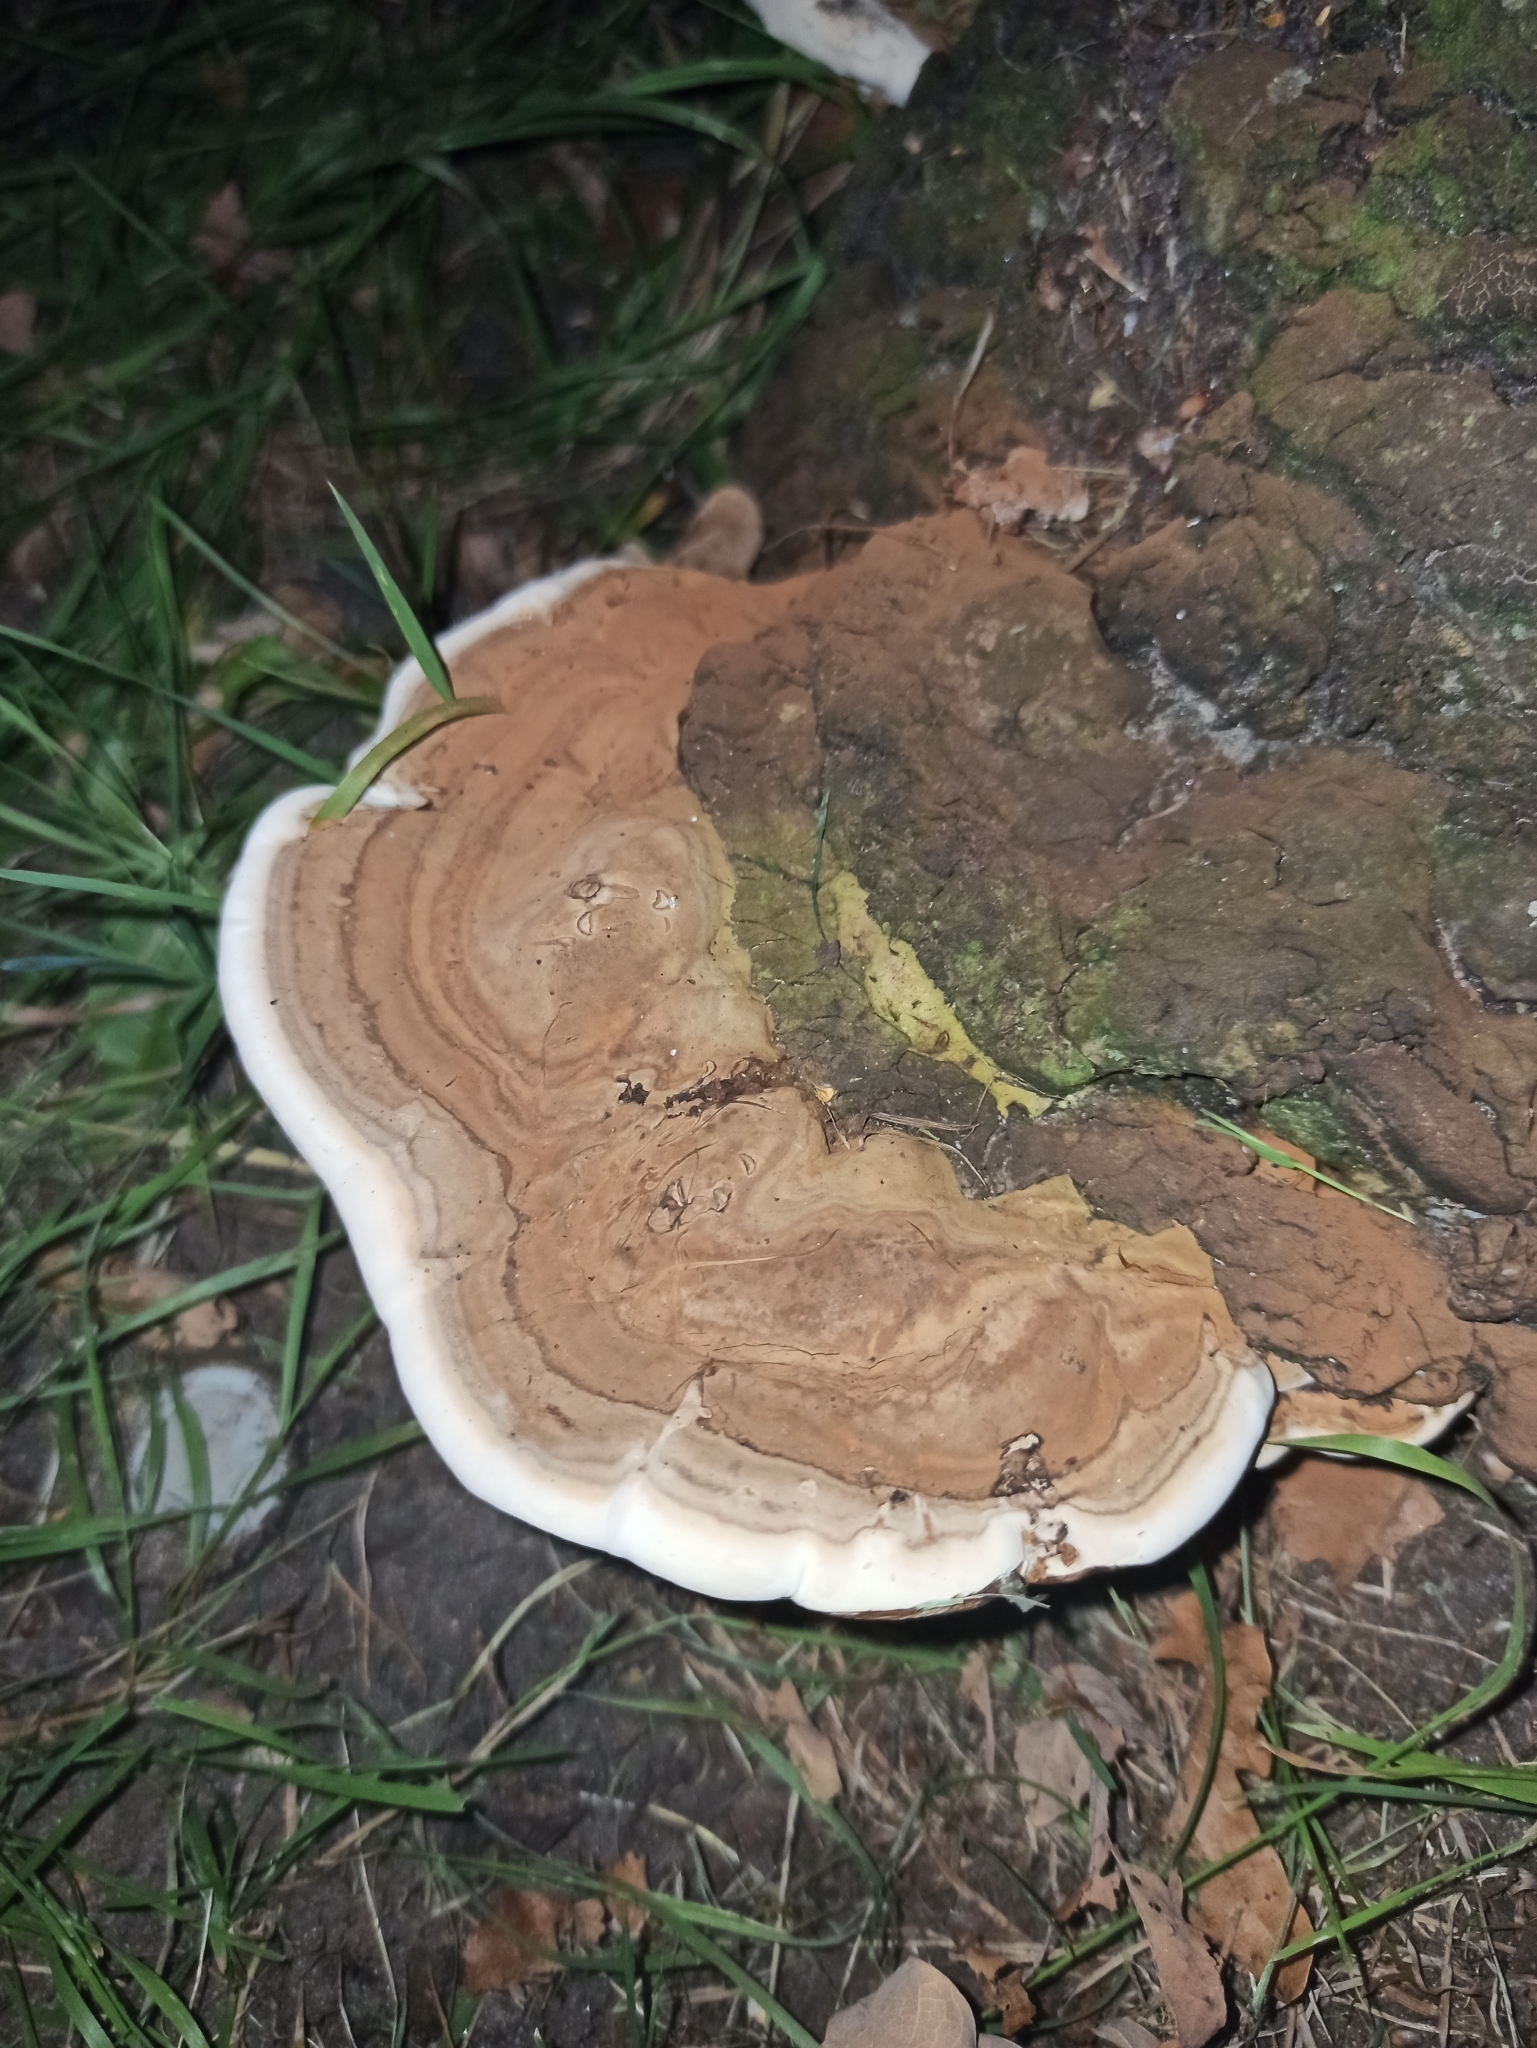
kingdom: Fungi
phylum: Basidiomycota
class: Agaricomycetes
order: Polyporales
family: Polyporaceae
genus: Ganoderma
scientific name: Ganoderma applanatum
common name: Artist's bracket
